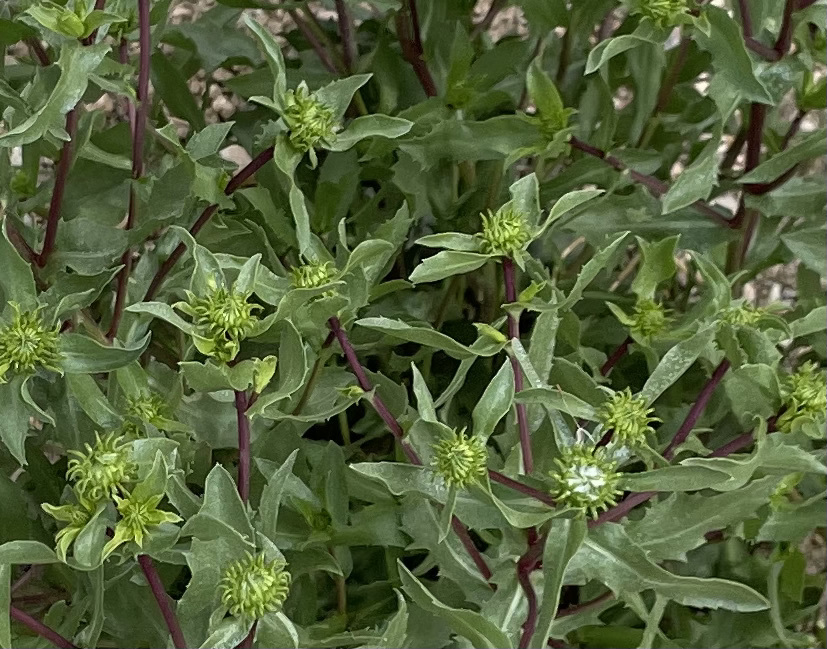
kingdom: Plantae
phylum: Tracheophyta
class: Magnoliopsida
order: Asterales
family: Asteraceae
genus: Grindelia
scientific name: Grindelia squarrosa
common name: Curly-cup gumweed
